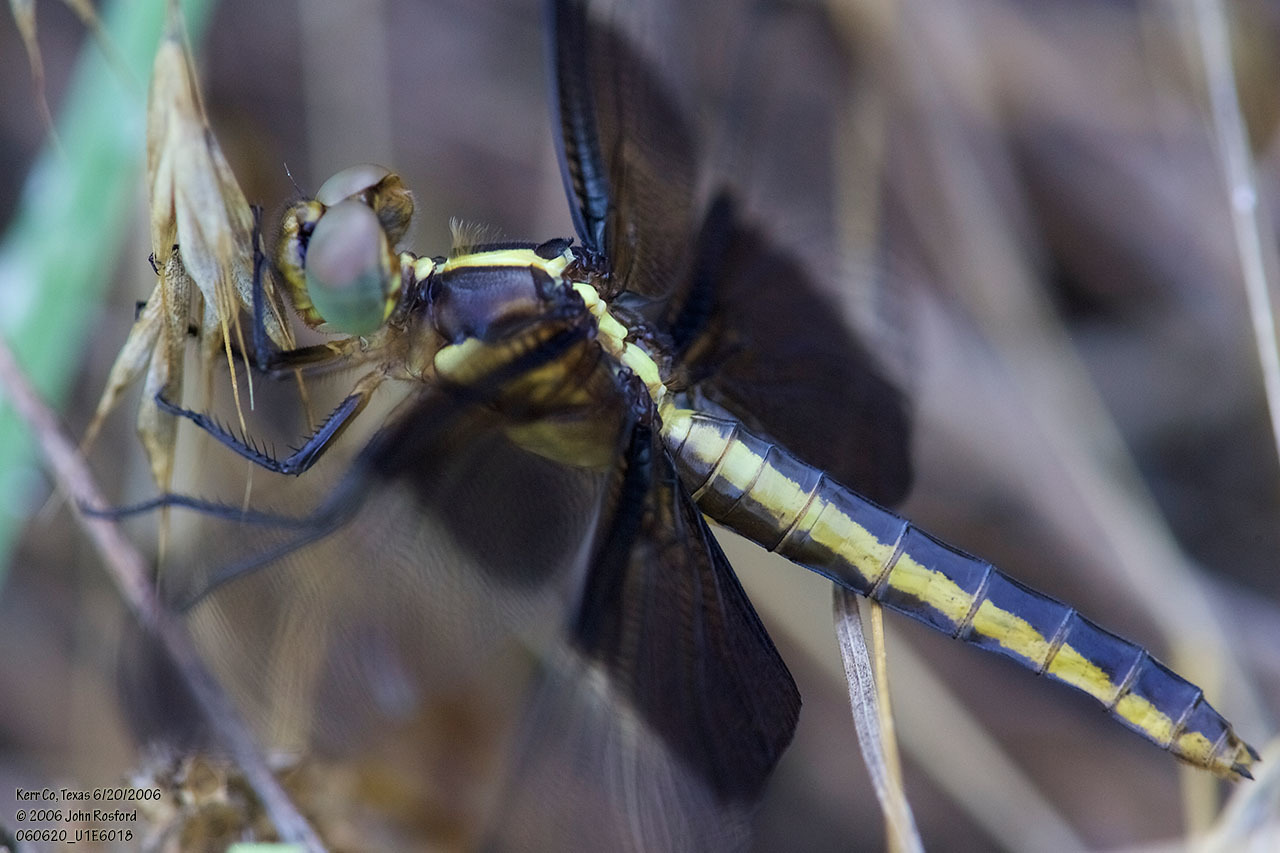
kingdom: Animalia
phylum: Arthropoda
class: Insecta
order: Odonata
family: Libellulidae
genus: Libellula
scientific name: Libellula luctuosa
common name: Widow skimmer
